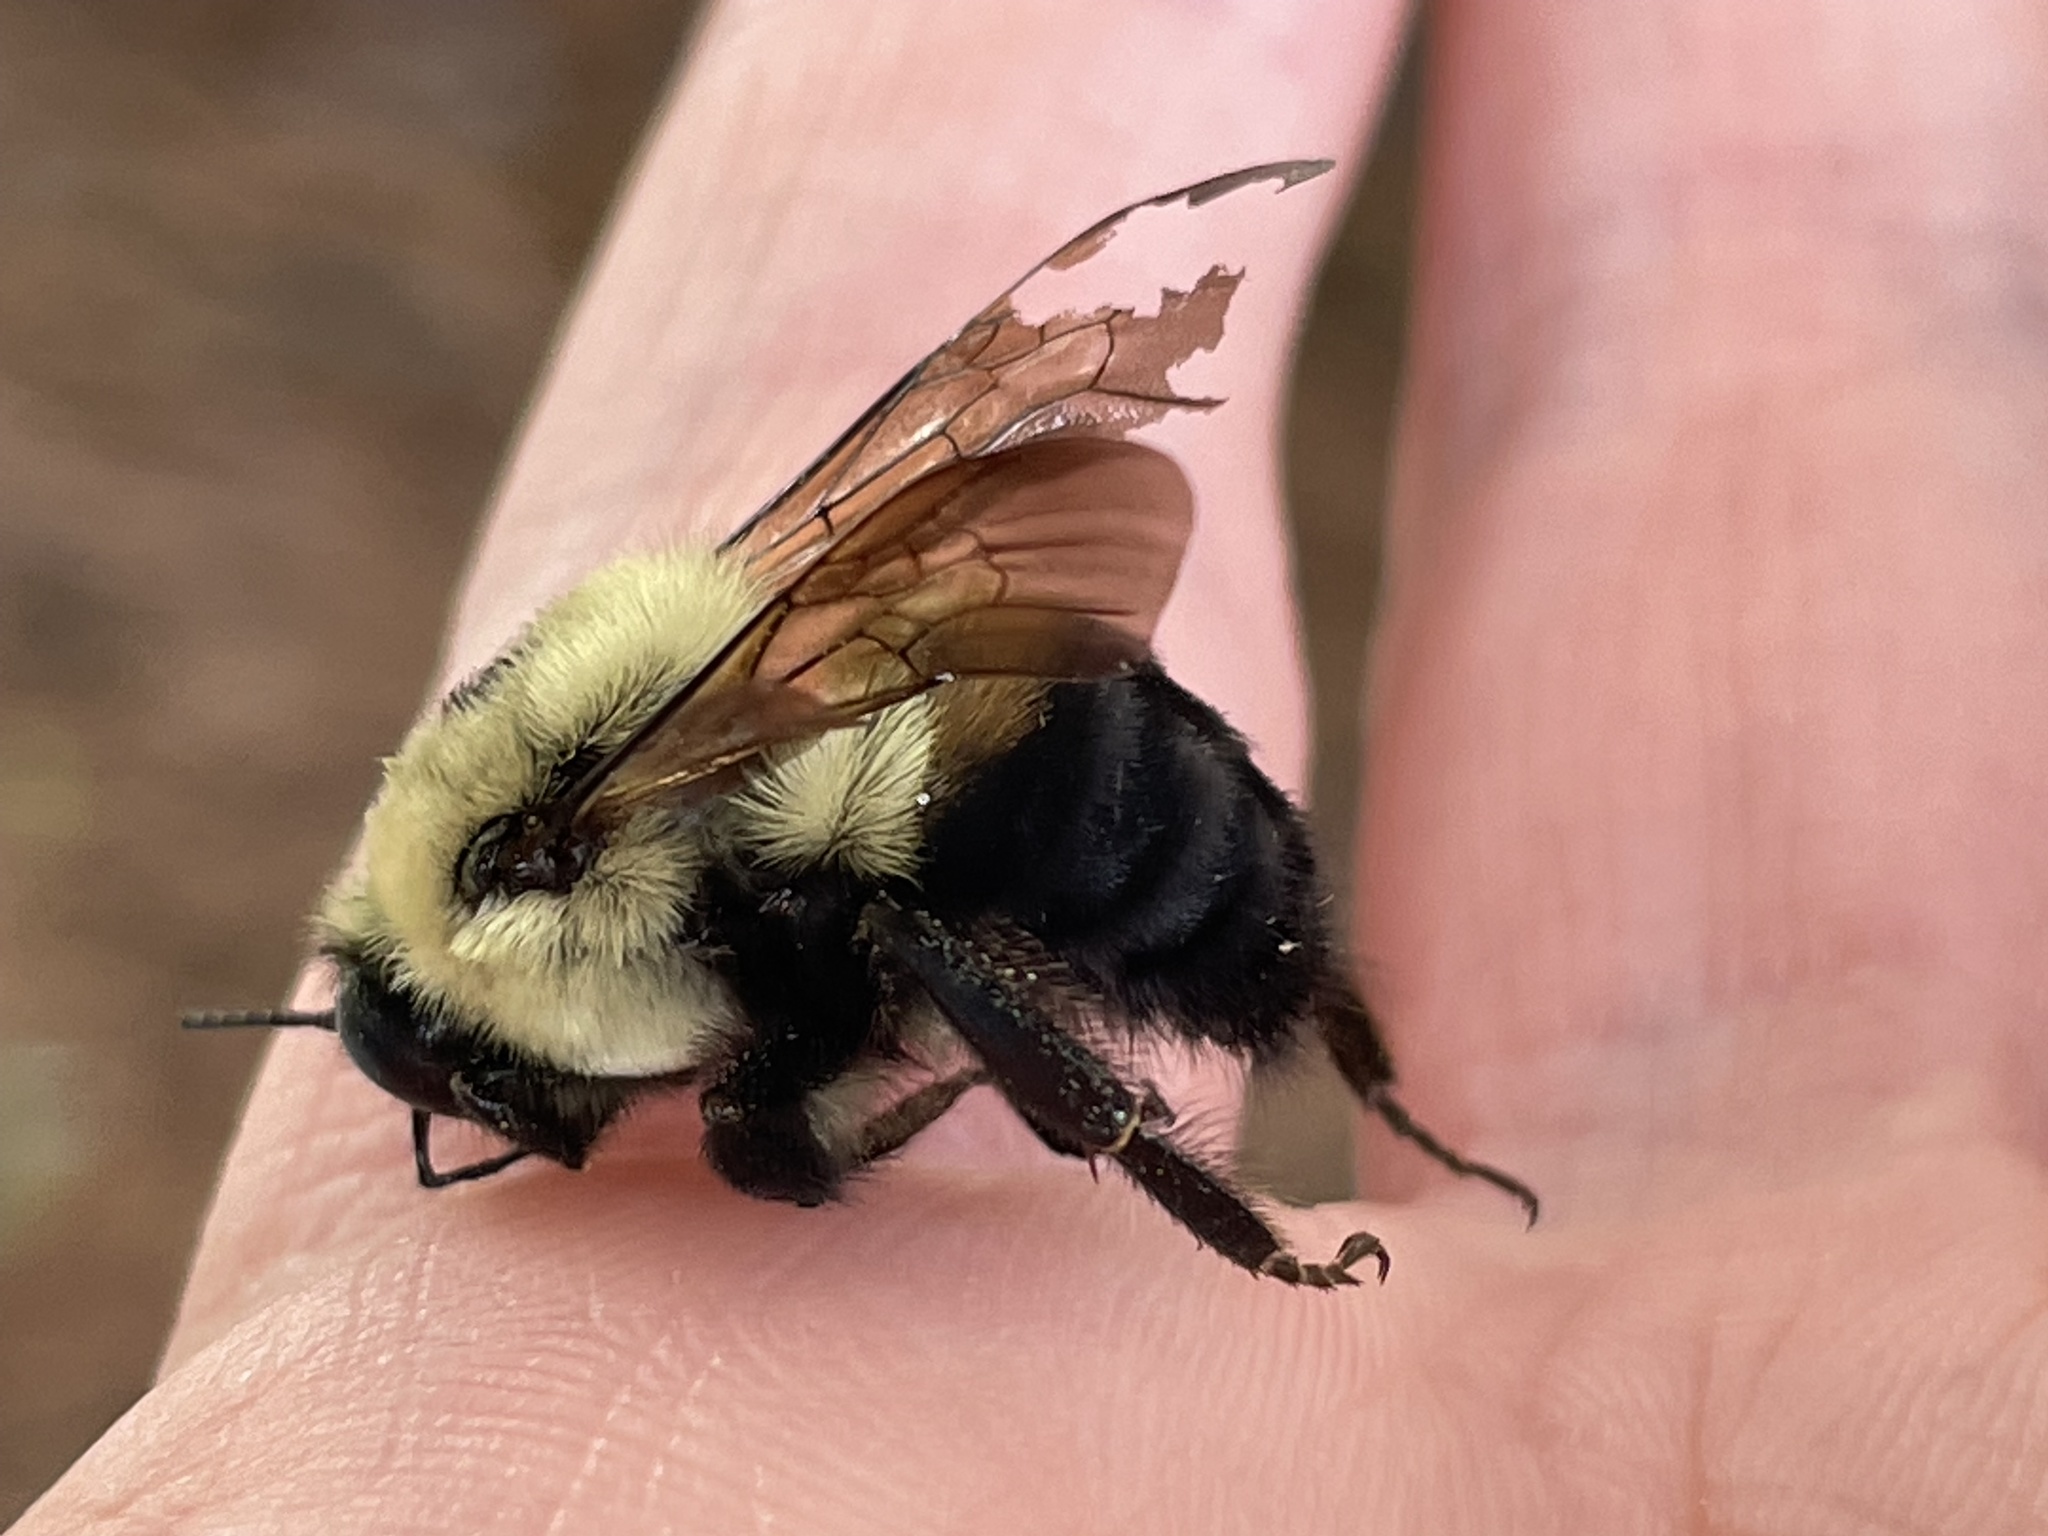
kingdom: Animalia
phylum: Arthropoda
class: Insecta
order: Hymenoptera
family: Apidae
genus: Bombus
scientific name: Bombus griseocollis
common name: Brown-belted bumble bee
